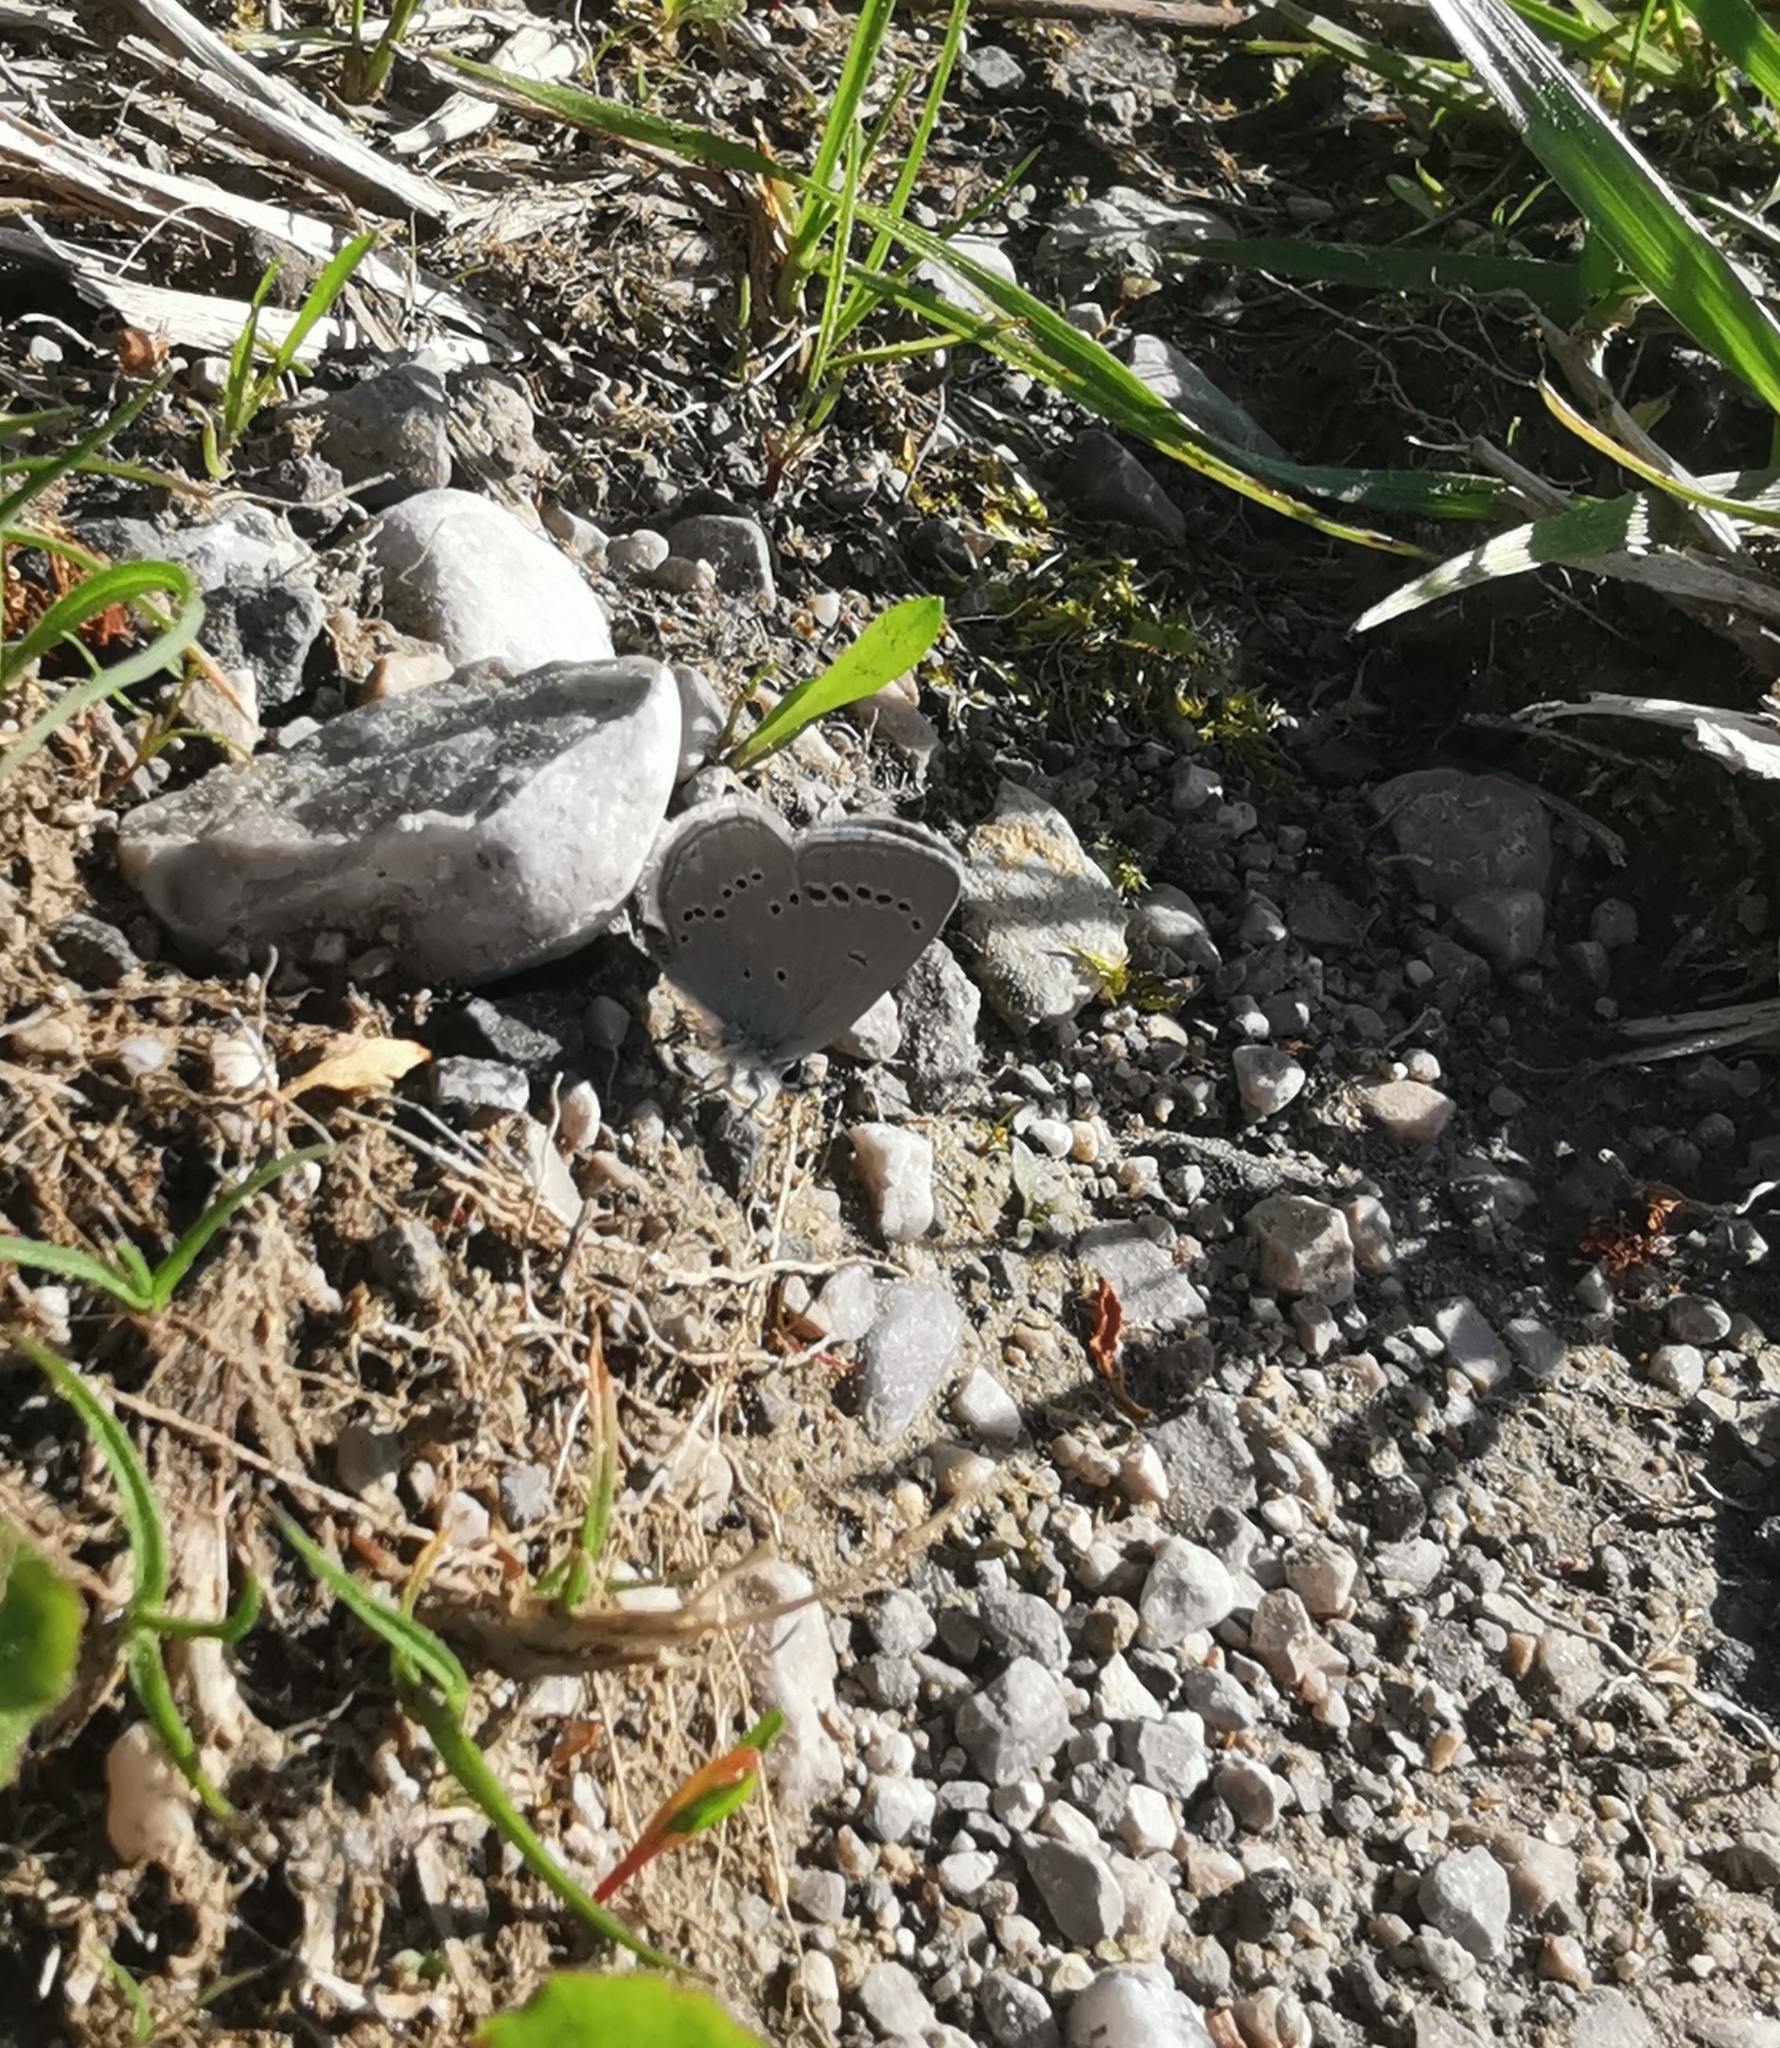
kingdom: Animalia
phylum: Arthropoda
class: Insecta
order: Lepidoptera
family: Lycaenidae
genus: Cupido
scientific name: Cupido minimus
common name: Small blue
